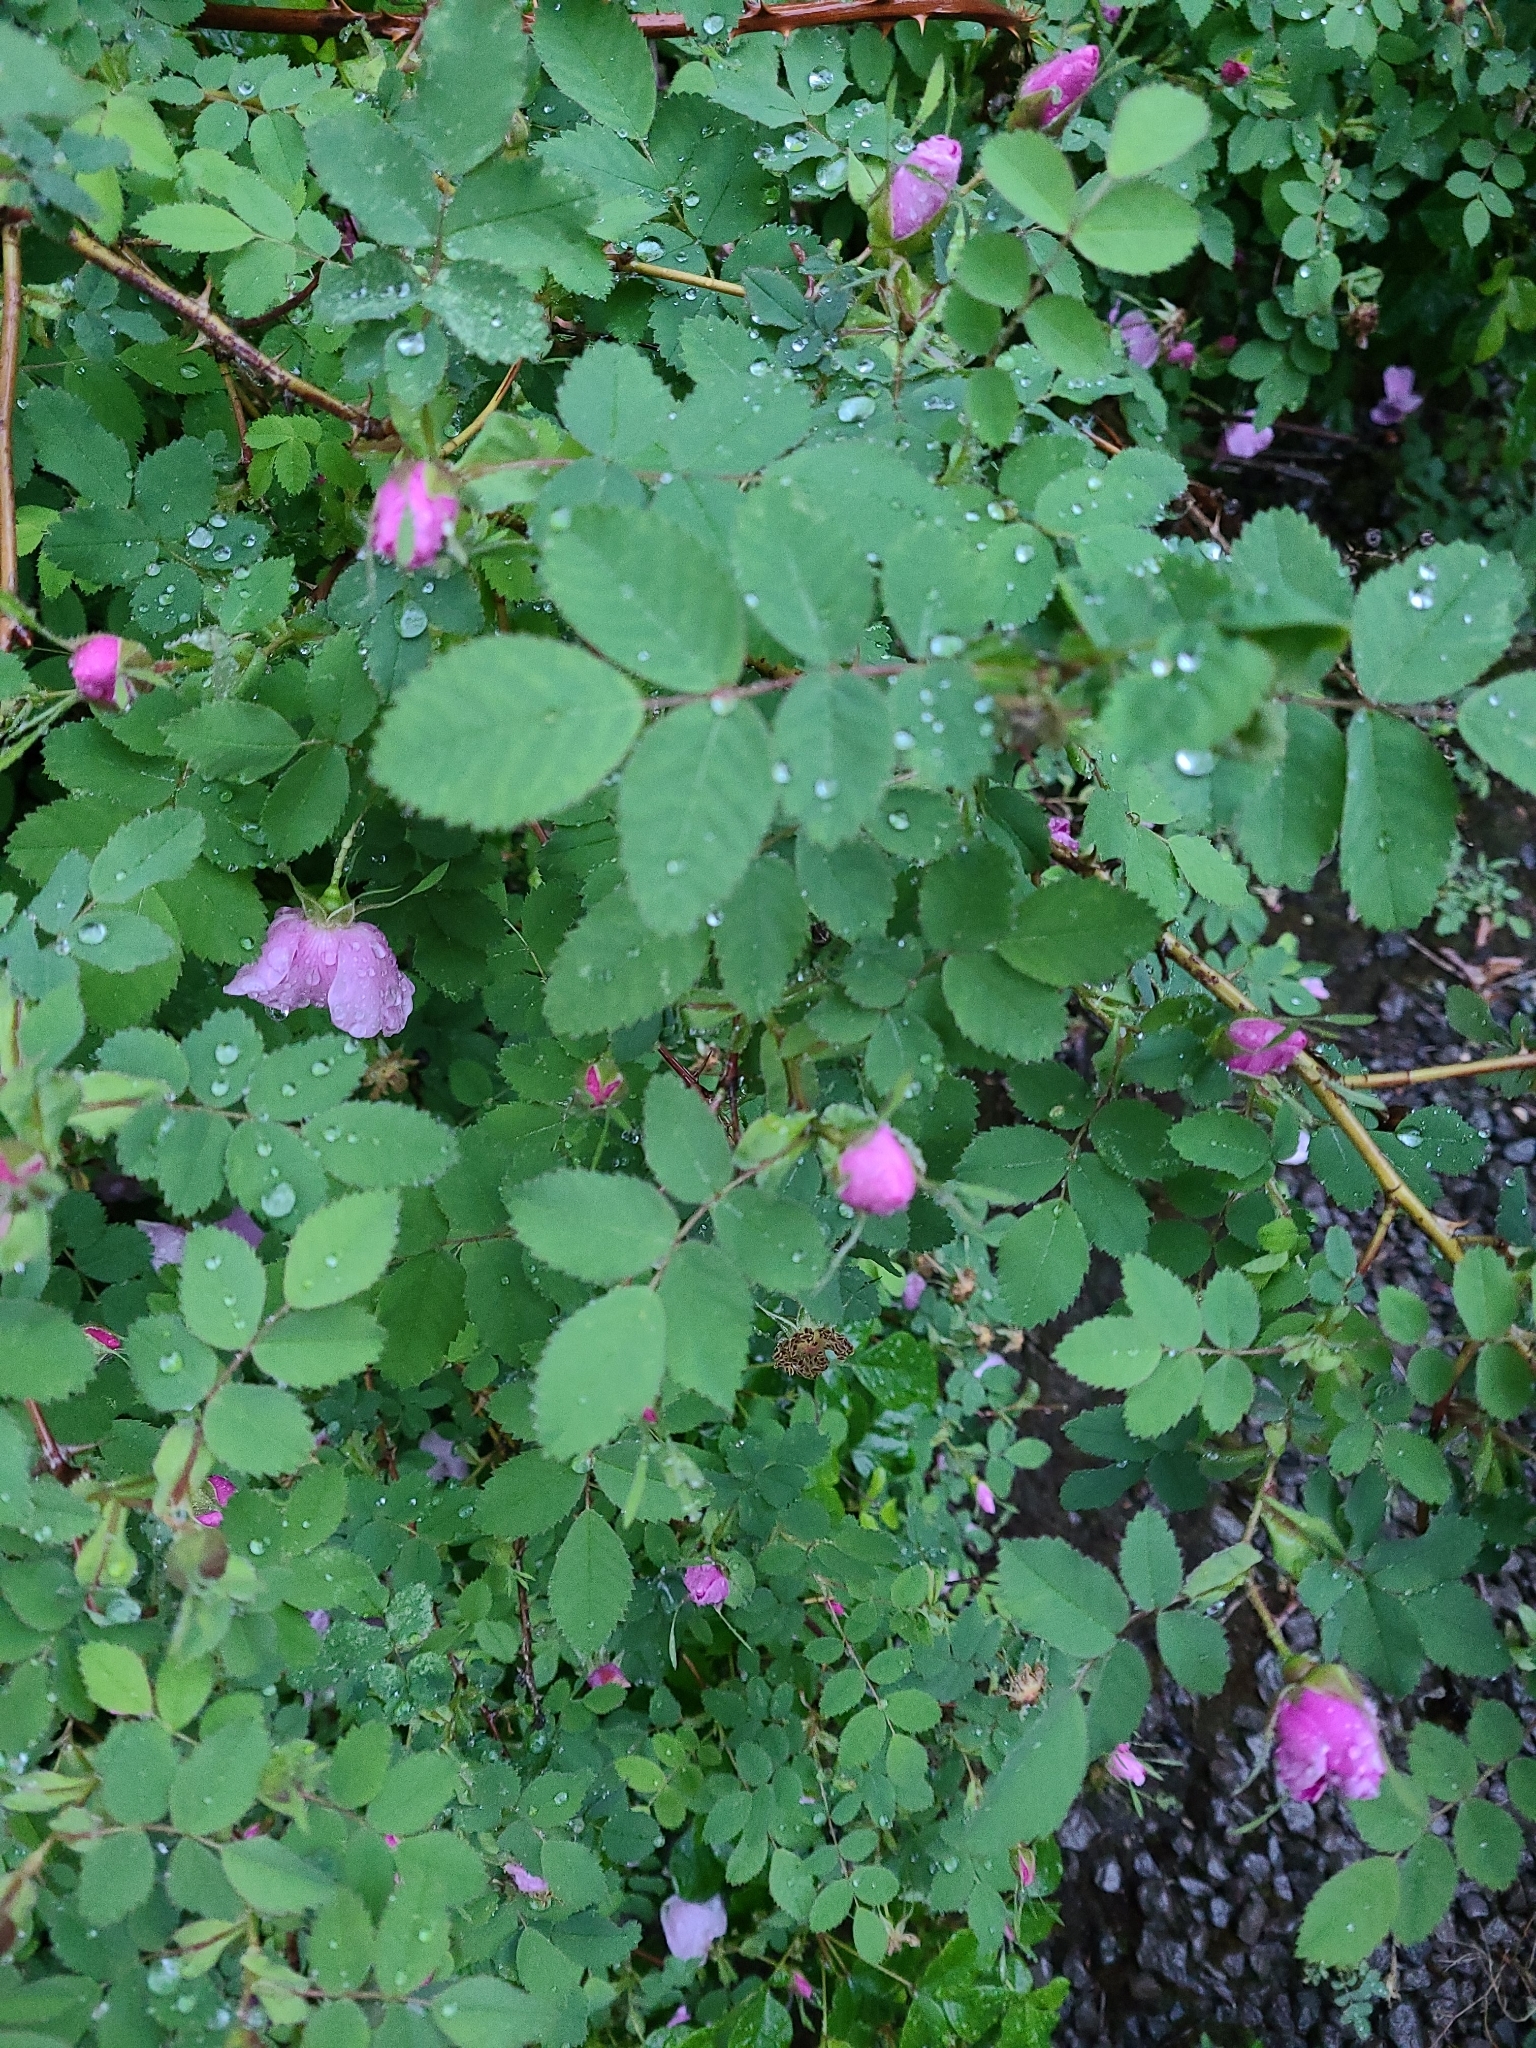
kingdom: Plantae
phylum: Tracheophyta
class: Magnoliopsida
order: Rosales
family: Rosaceae
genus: Rosa
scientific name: Rosa gymnocarpa
